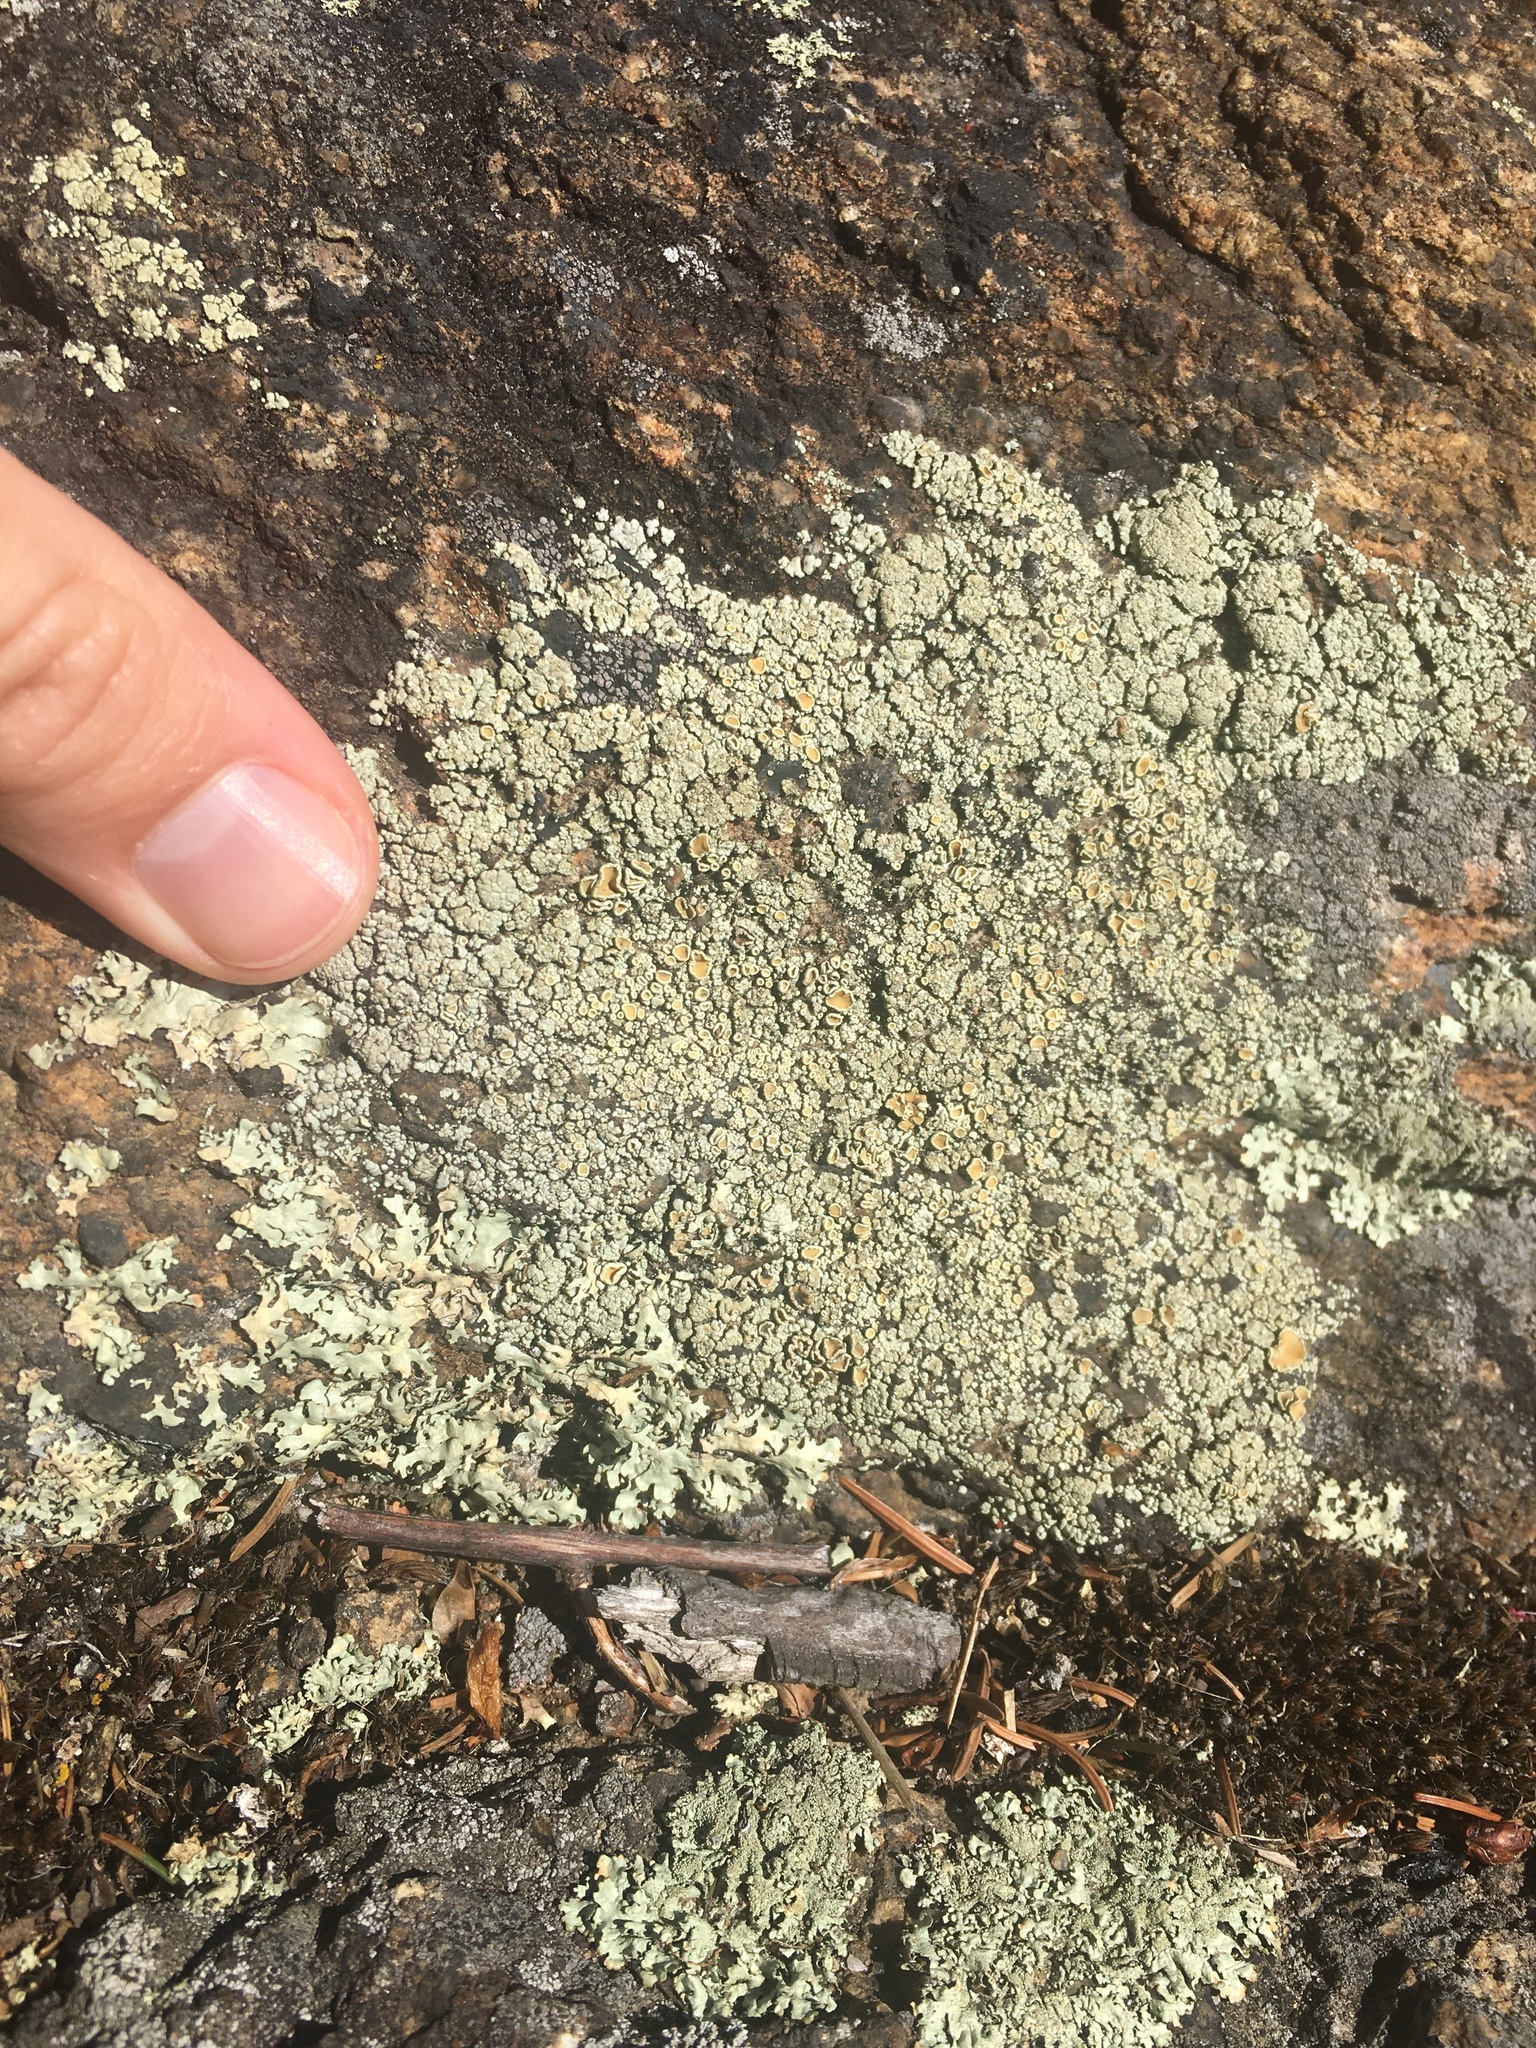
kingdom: Fungi
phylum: Ascomycota
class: Lecanoromycetes
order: Lecanorales
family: Lecanoraceae
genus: Protoparmeliopsis
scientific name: Protoparmeliopsis muralis
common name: Stonewall rim lichen
